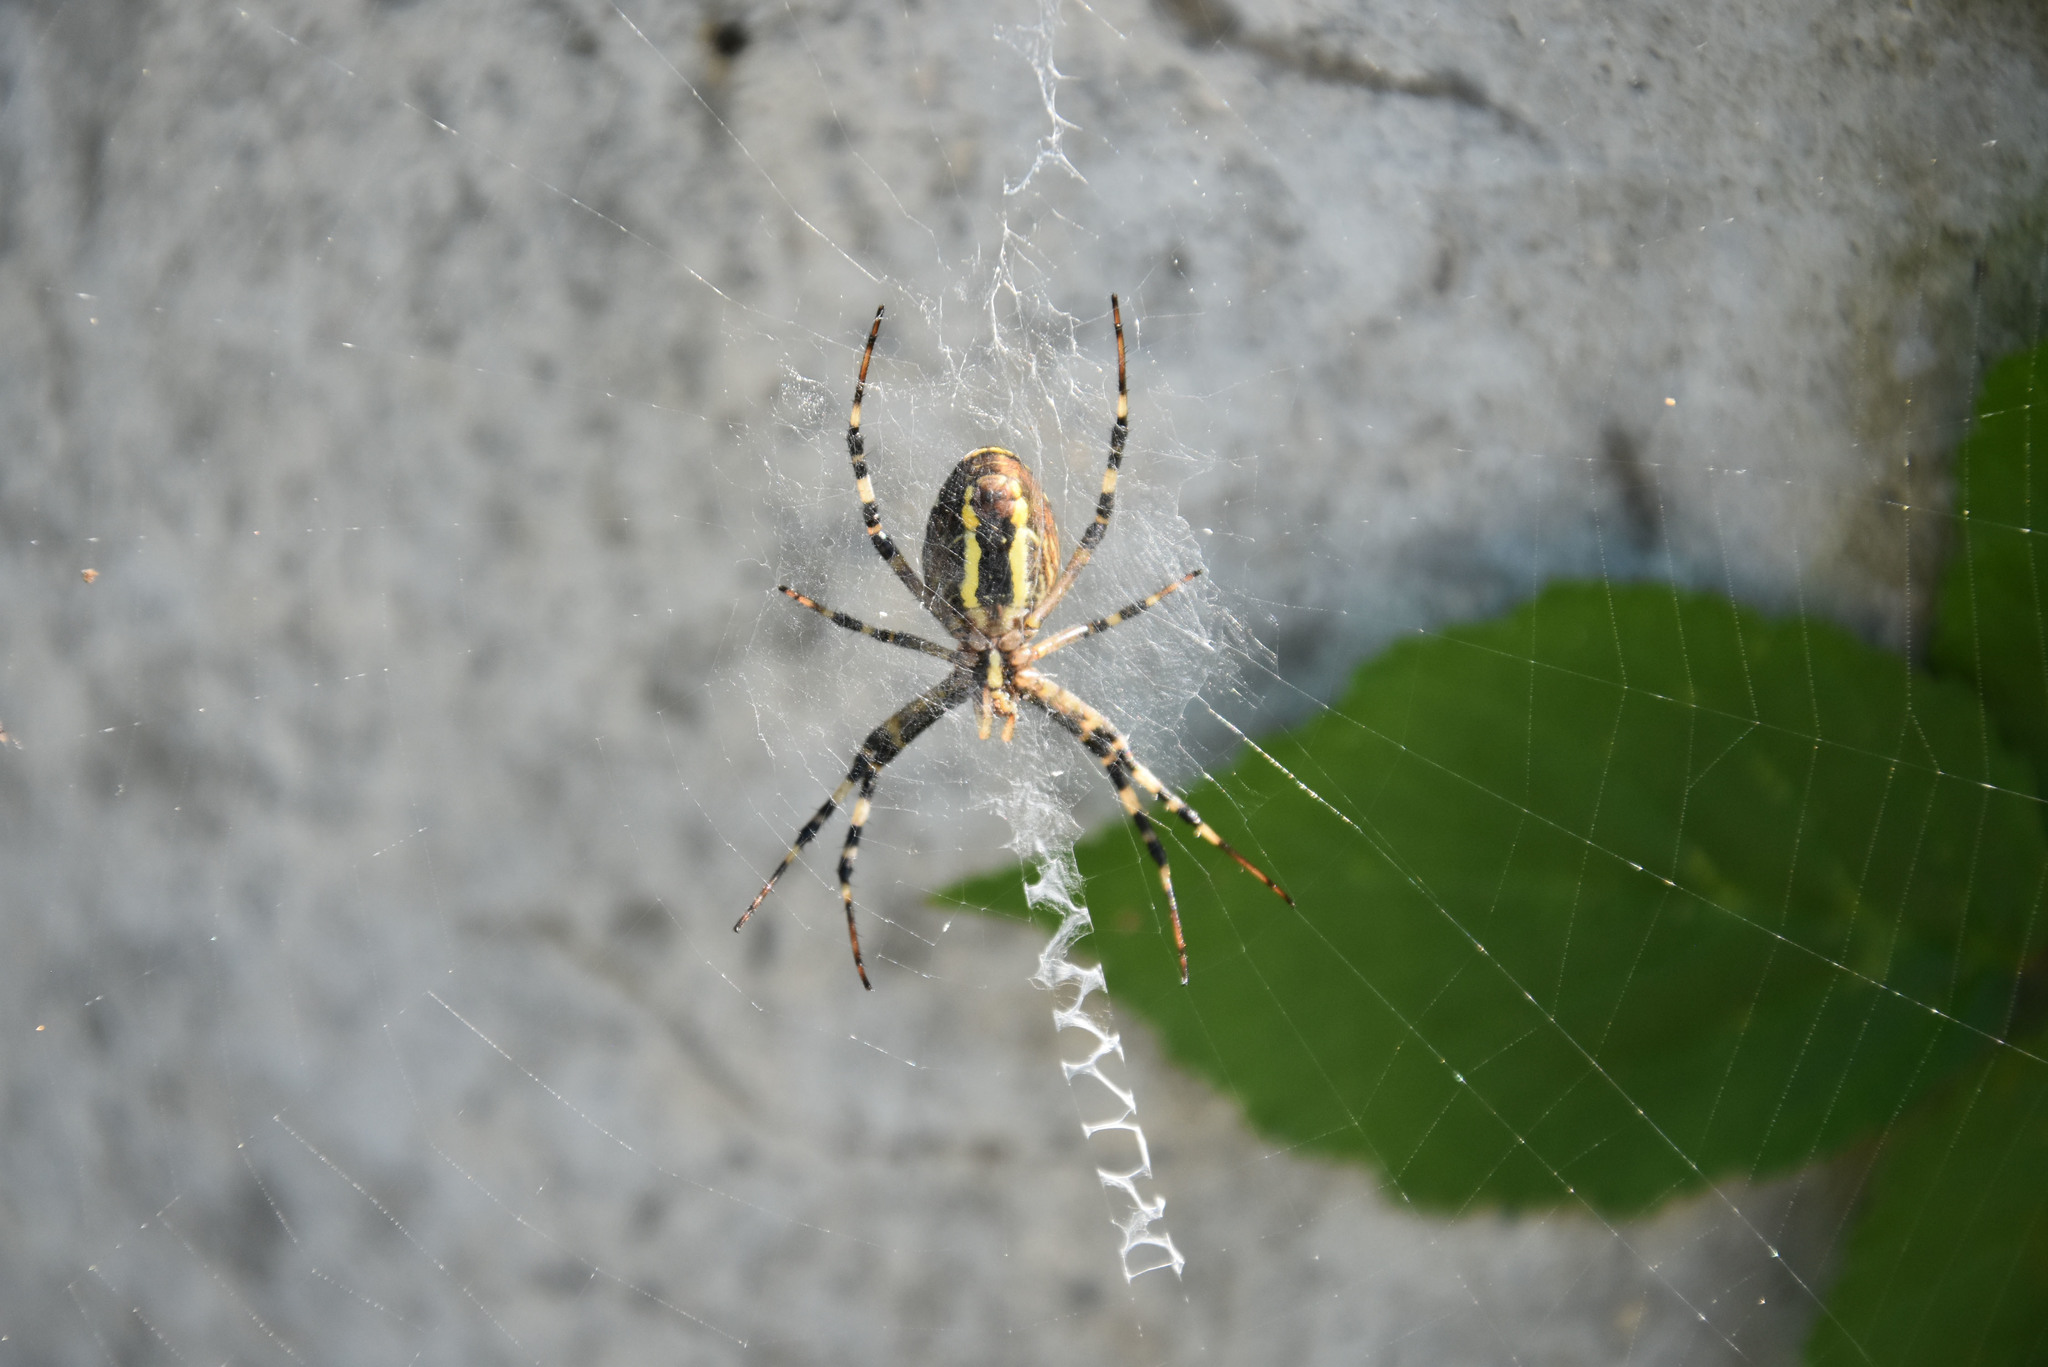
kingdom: Animalia
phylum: Arthropoda
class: Arachnida
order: Araneae
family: Araneidae
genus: Argiope
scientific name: Argiope bruennichi
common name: Wasp spider
